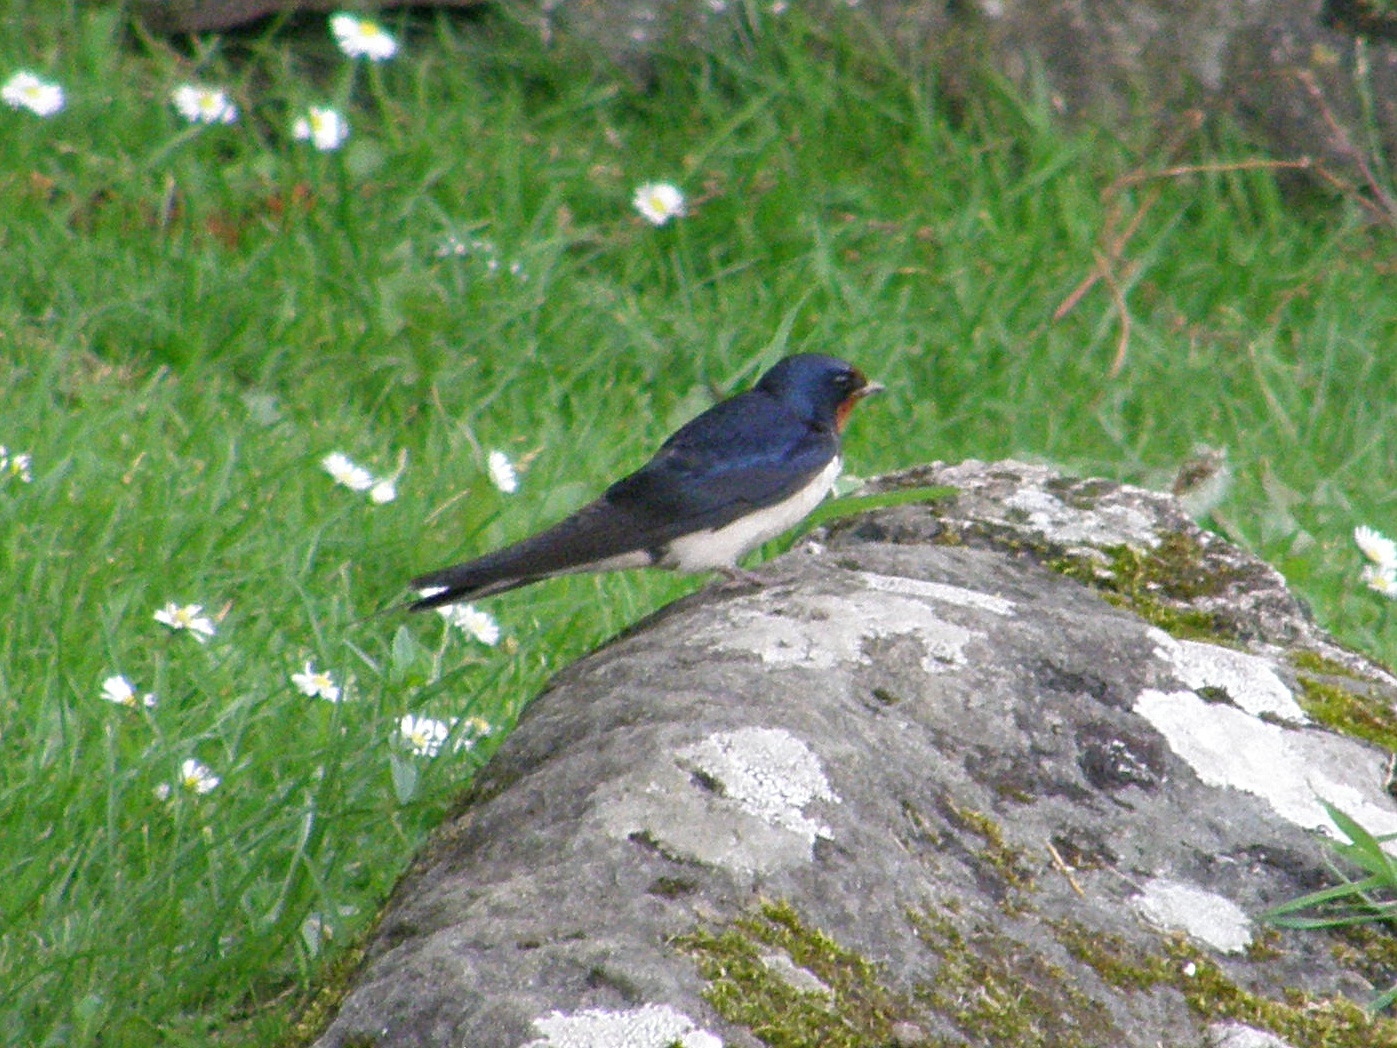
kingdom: Animalia
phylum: Chordata
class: Aves
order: Passeriformes
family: Hirundinidae
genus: Hirundo
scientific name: Hirundo rustica
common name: Barn swallow
